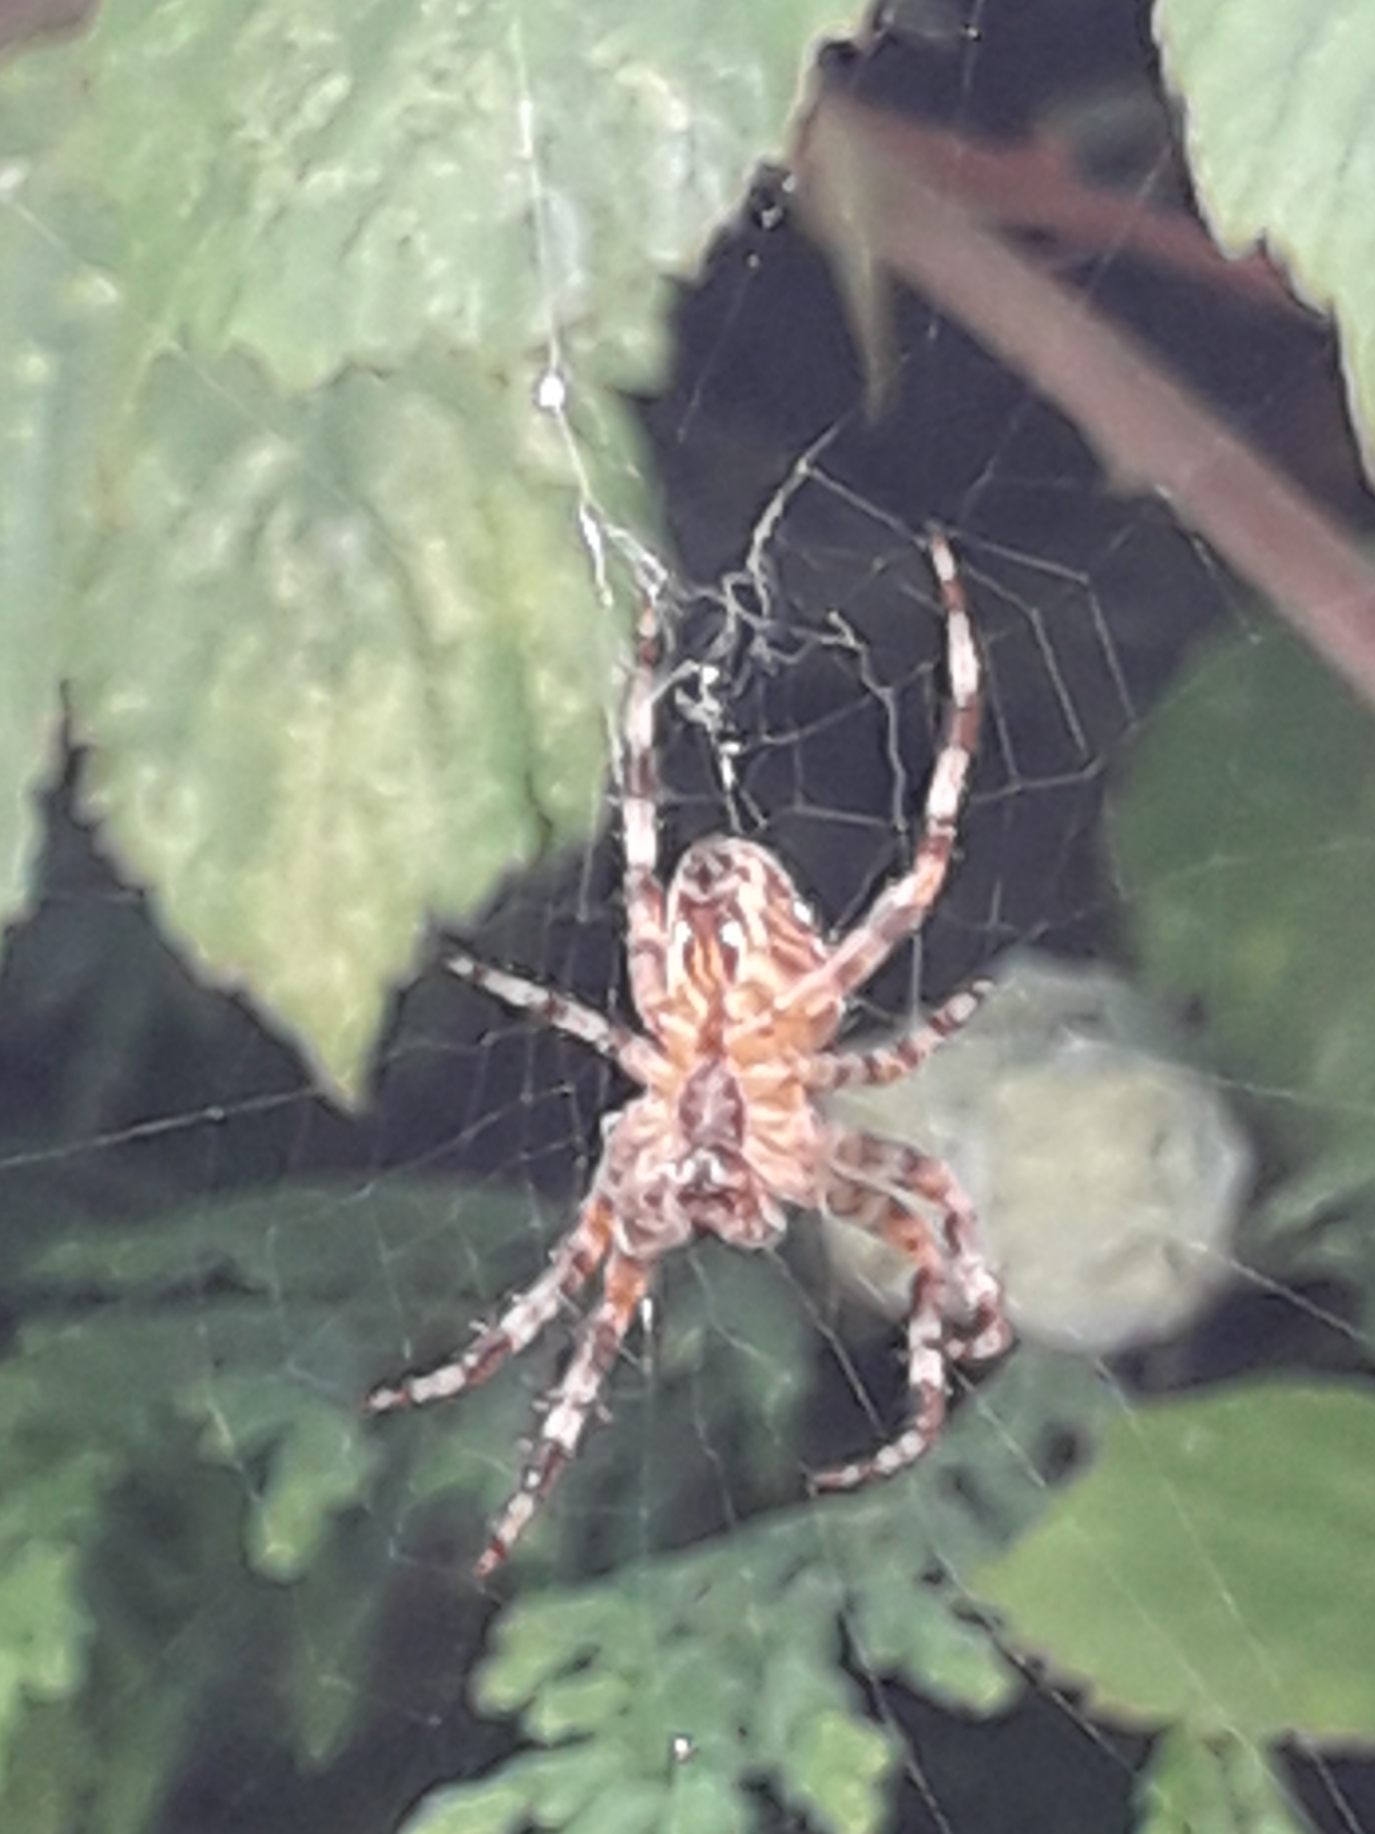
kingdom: Animalia
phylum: Arthropoda
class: Arachnida
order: Araneae
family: Araneidae
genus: Araneus
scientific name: Araneus diadematus
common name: Cross orbweaver
